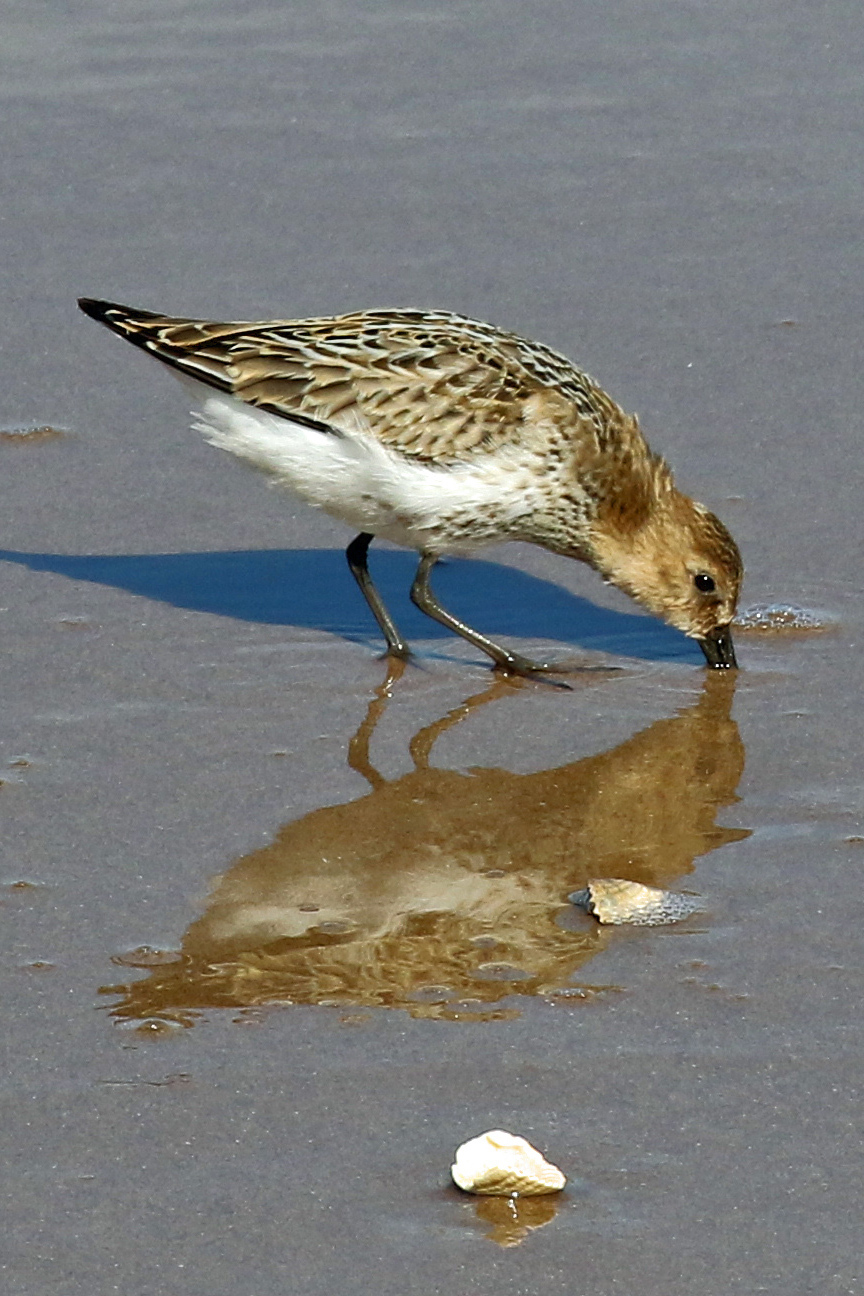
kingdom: Animalia
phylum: Chordata
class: Aves
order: Charadriiformes
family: Scolopacidae
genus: Calidris
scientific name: Calidris alpina
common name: Dunlin
